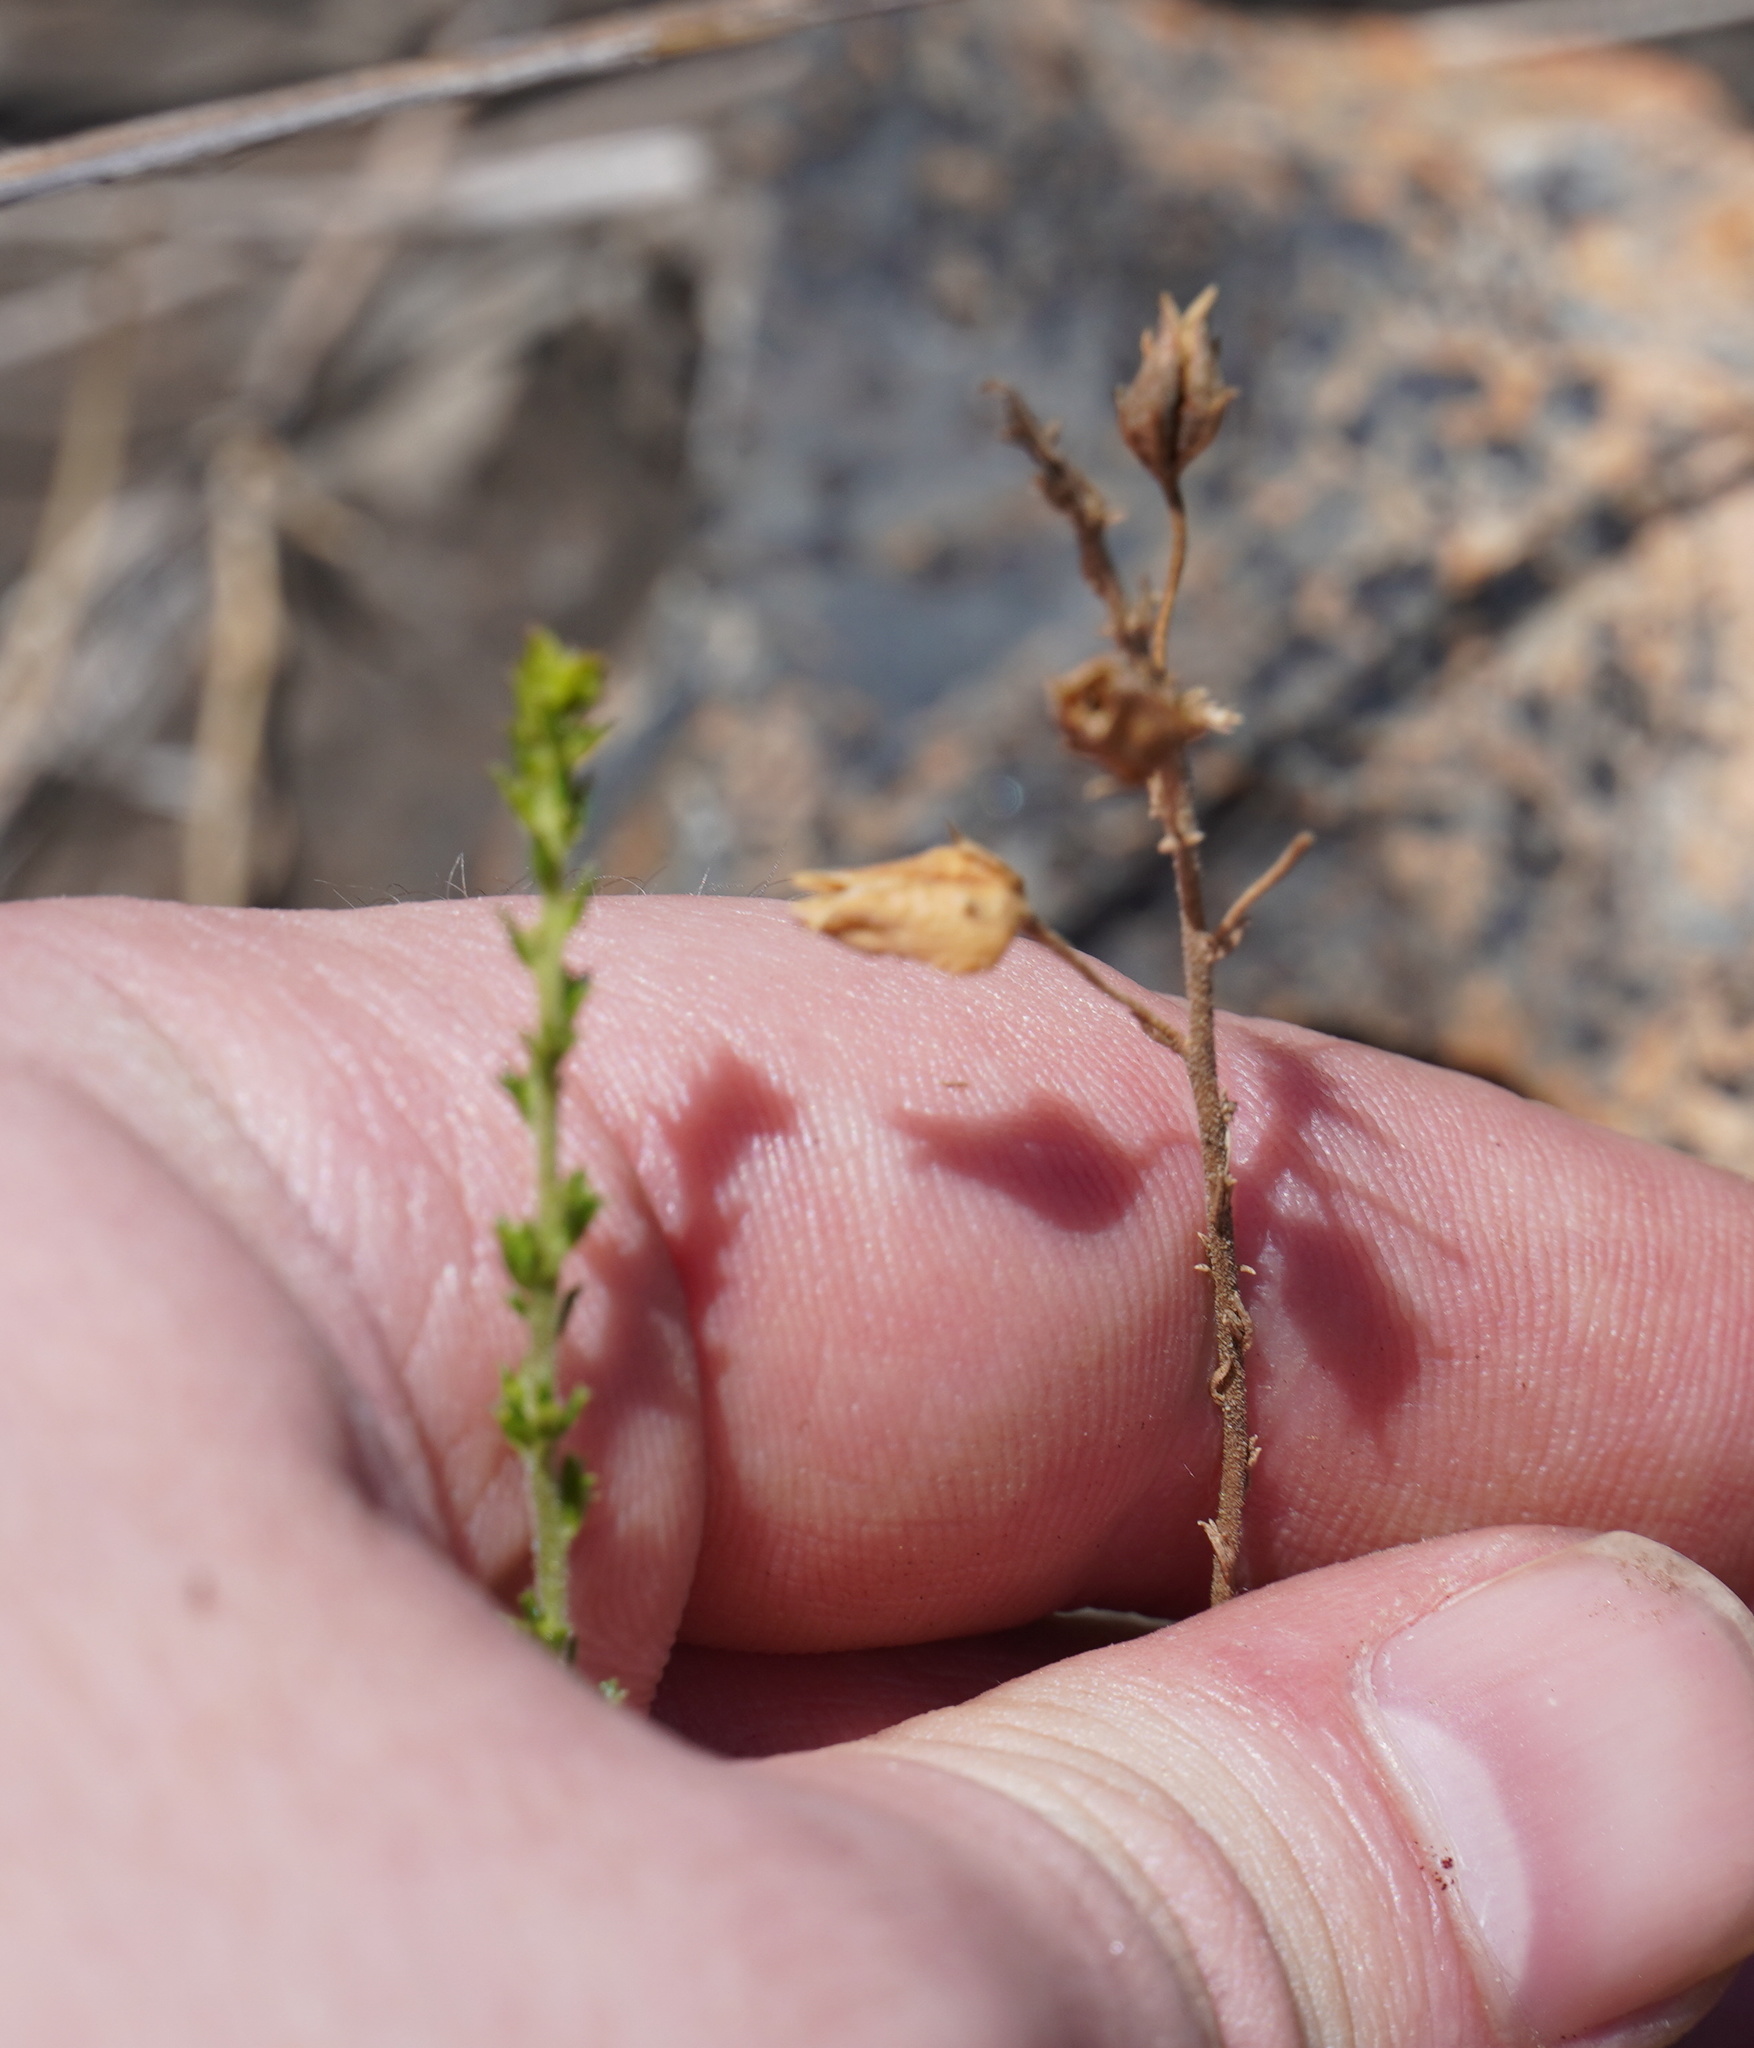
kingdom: Plantae
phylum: Tracheophyta
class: Magnoliopsida
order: Lamiales
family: Scrophulariaceae
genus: Jamesbrittenia
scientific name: Jamesbrittenia burkeana
